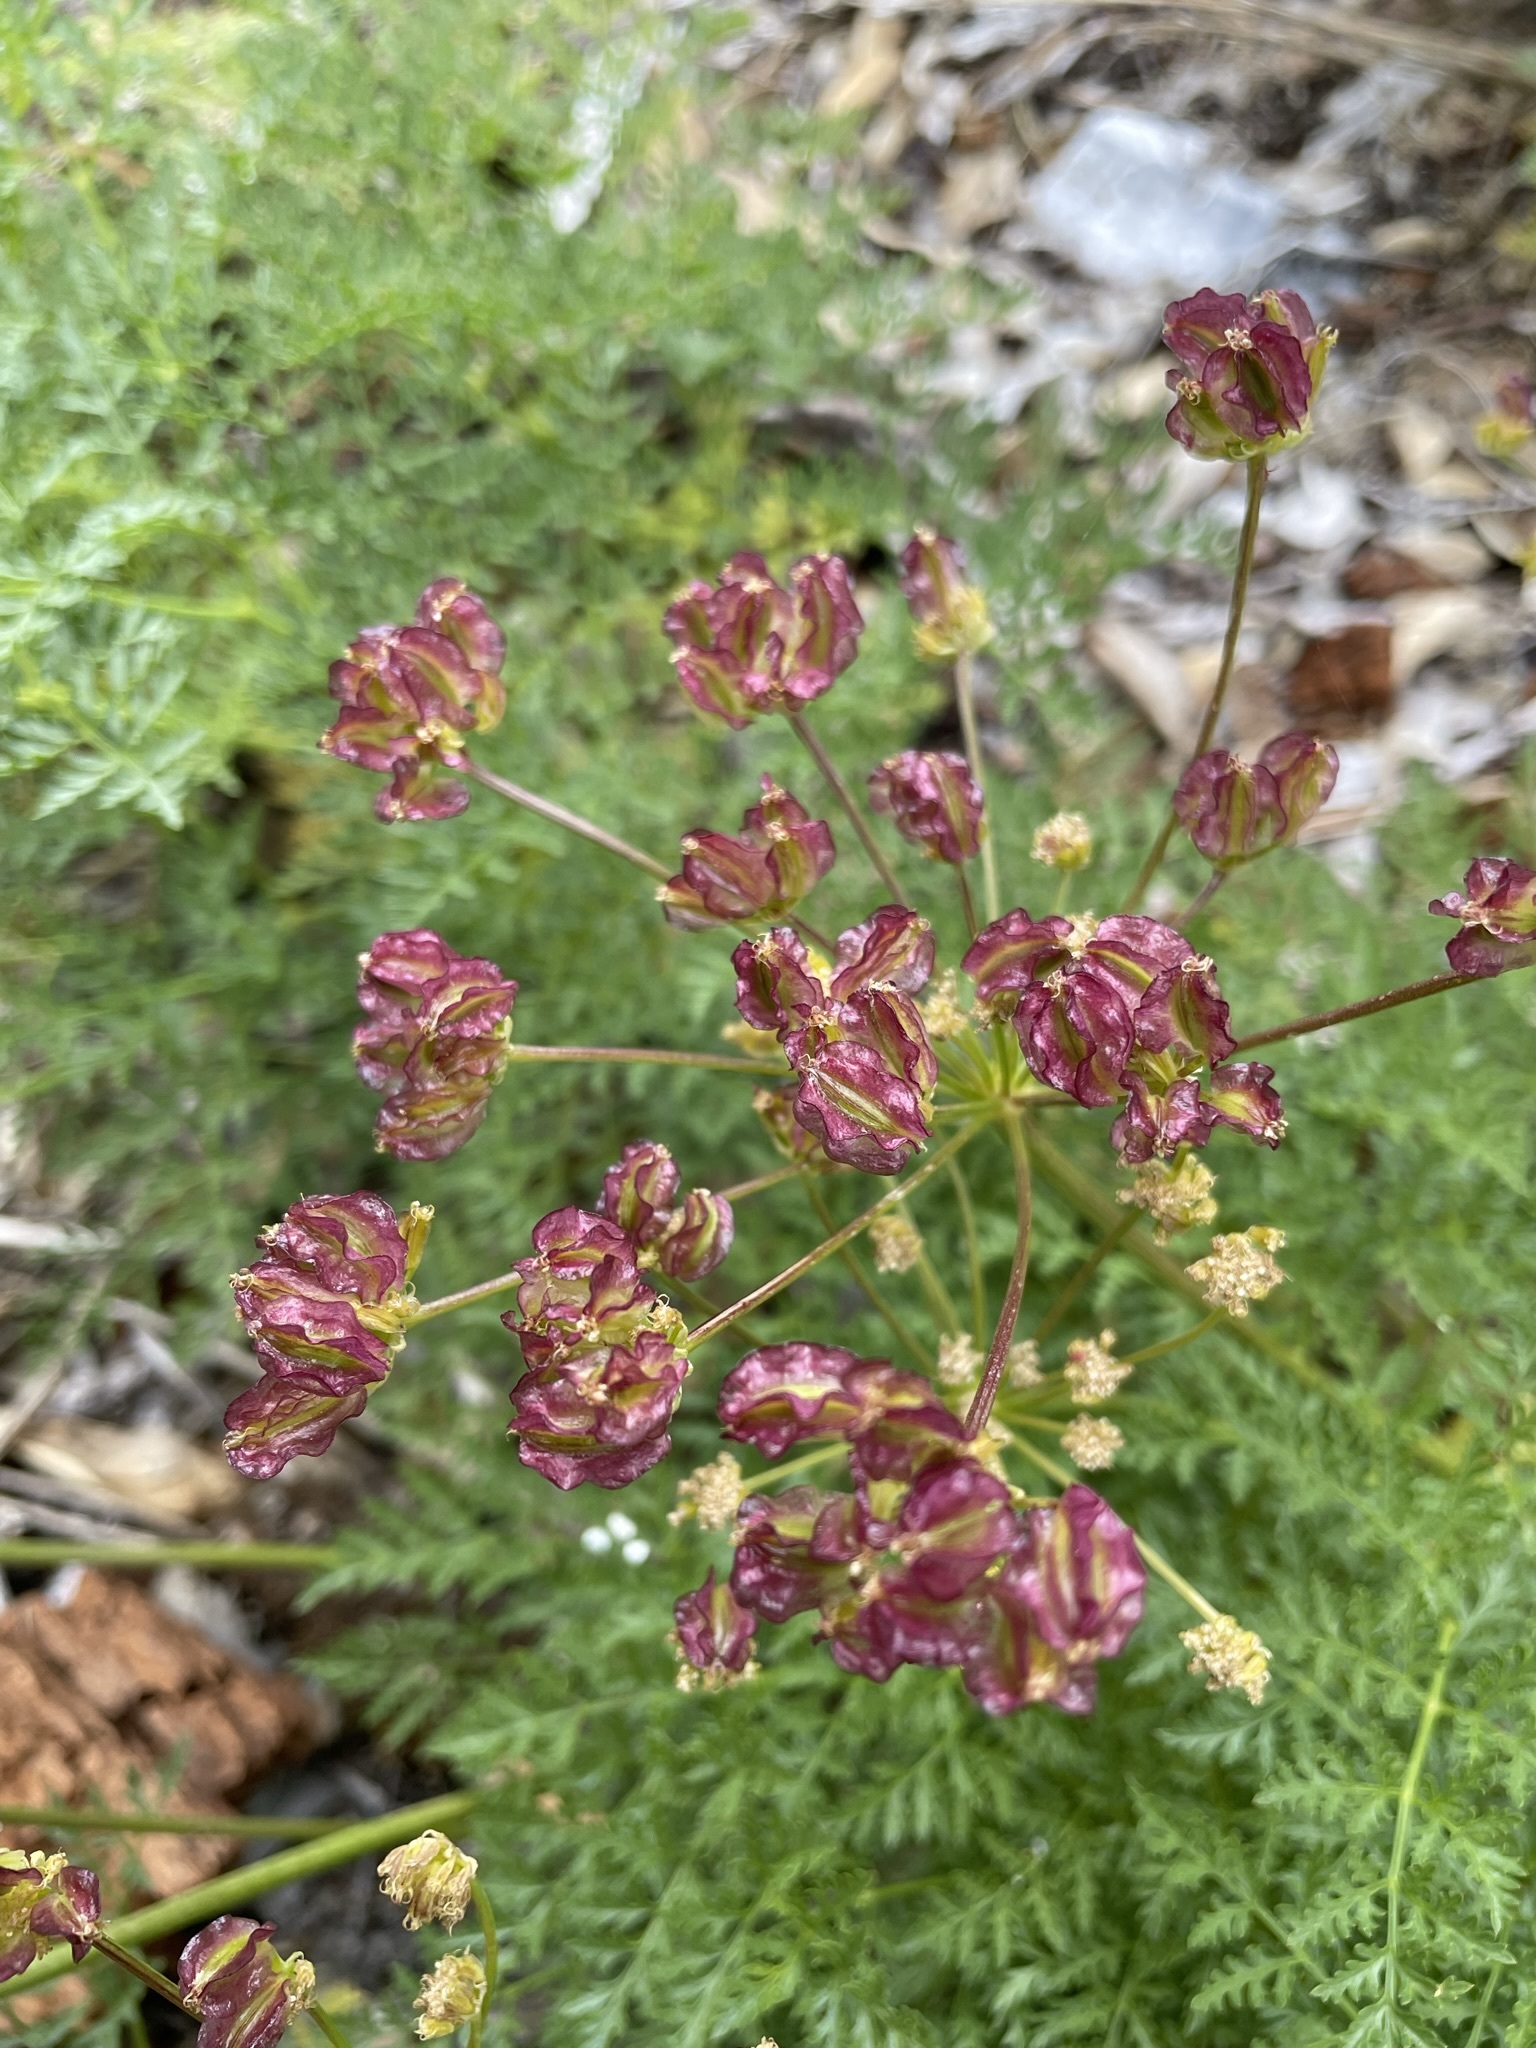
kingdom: Plantae
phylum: Tracheophyta
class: Magnoliopsida
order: Apiales
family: Apiaceae
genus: Pteryxia
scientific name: Pteryxia terebinthina
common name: Turpentine wavewing
